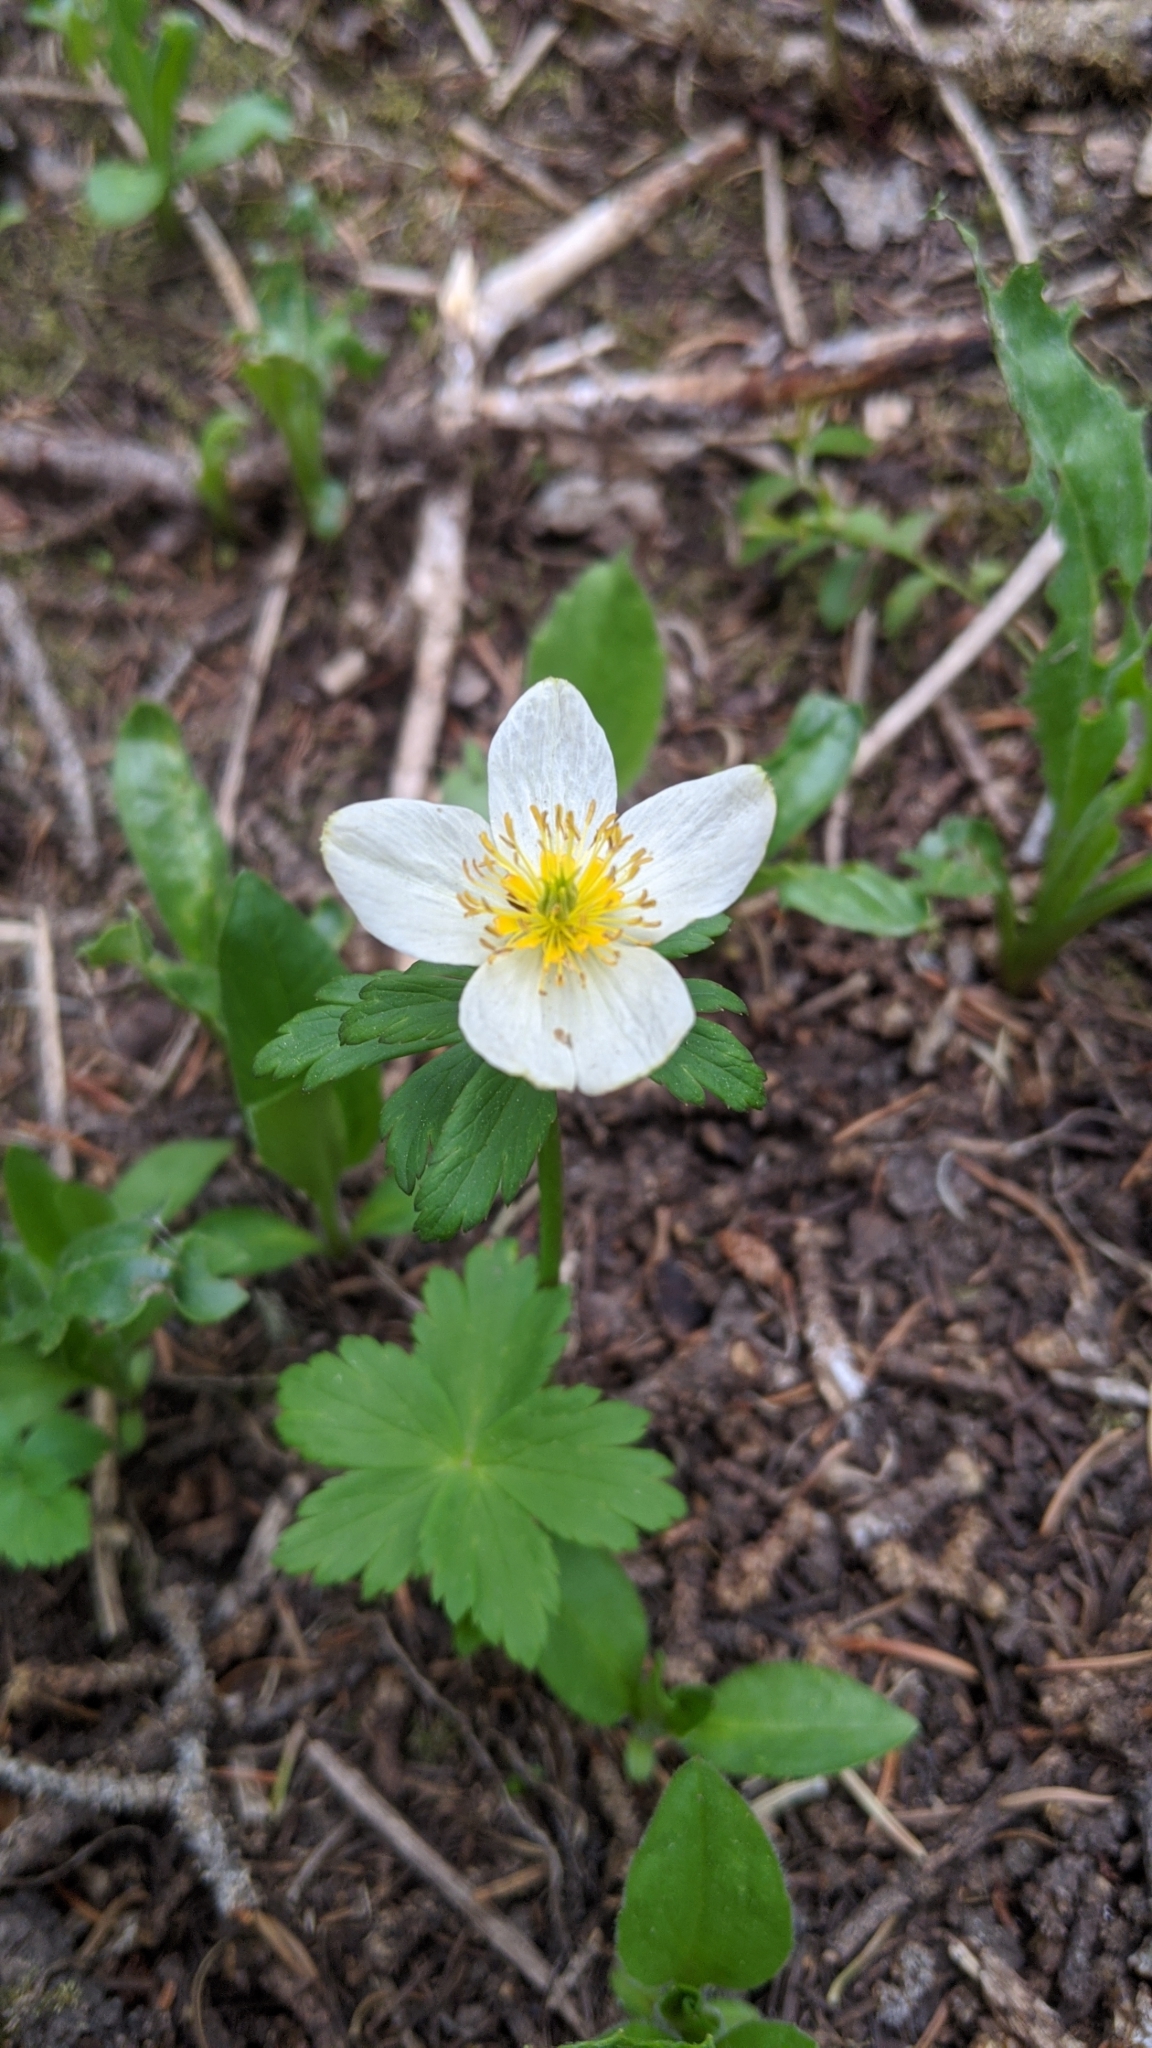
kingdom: Plantae
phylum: Tracheophyta
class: Magnoliopsida
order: Ranunculales
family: Ranunculaceae
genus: Trollius
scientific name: Trollius laxus
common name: American globeflower
